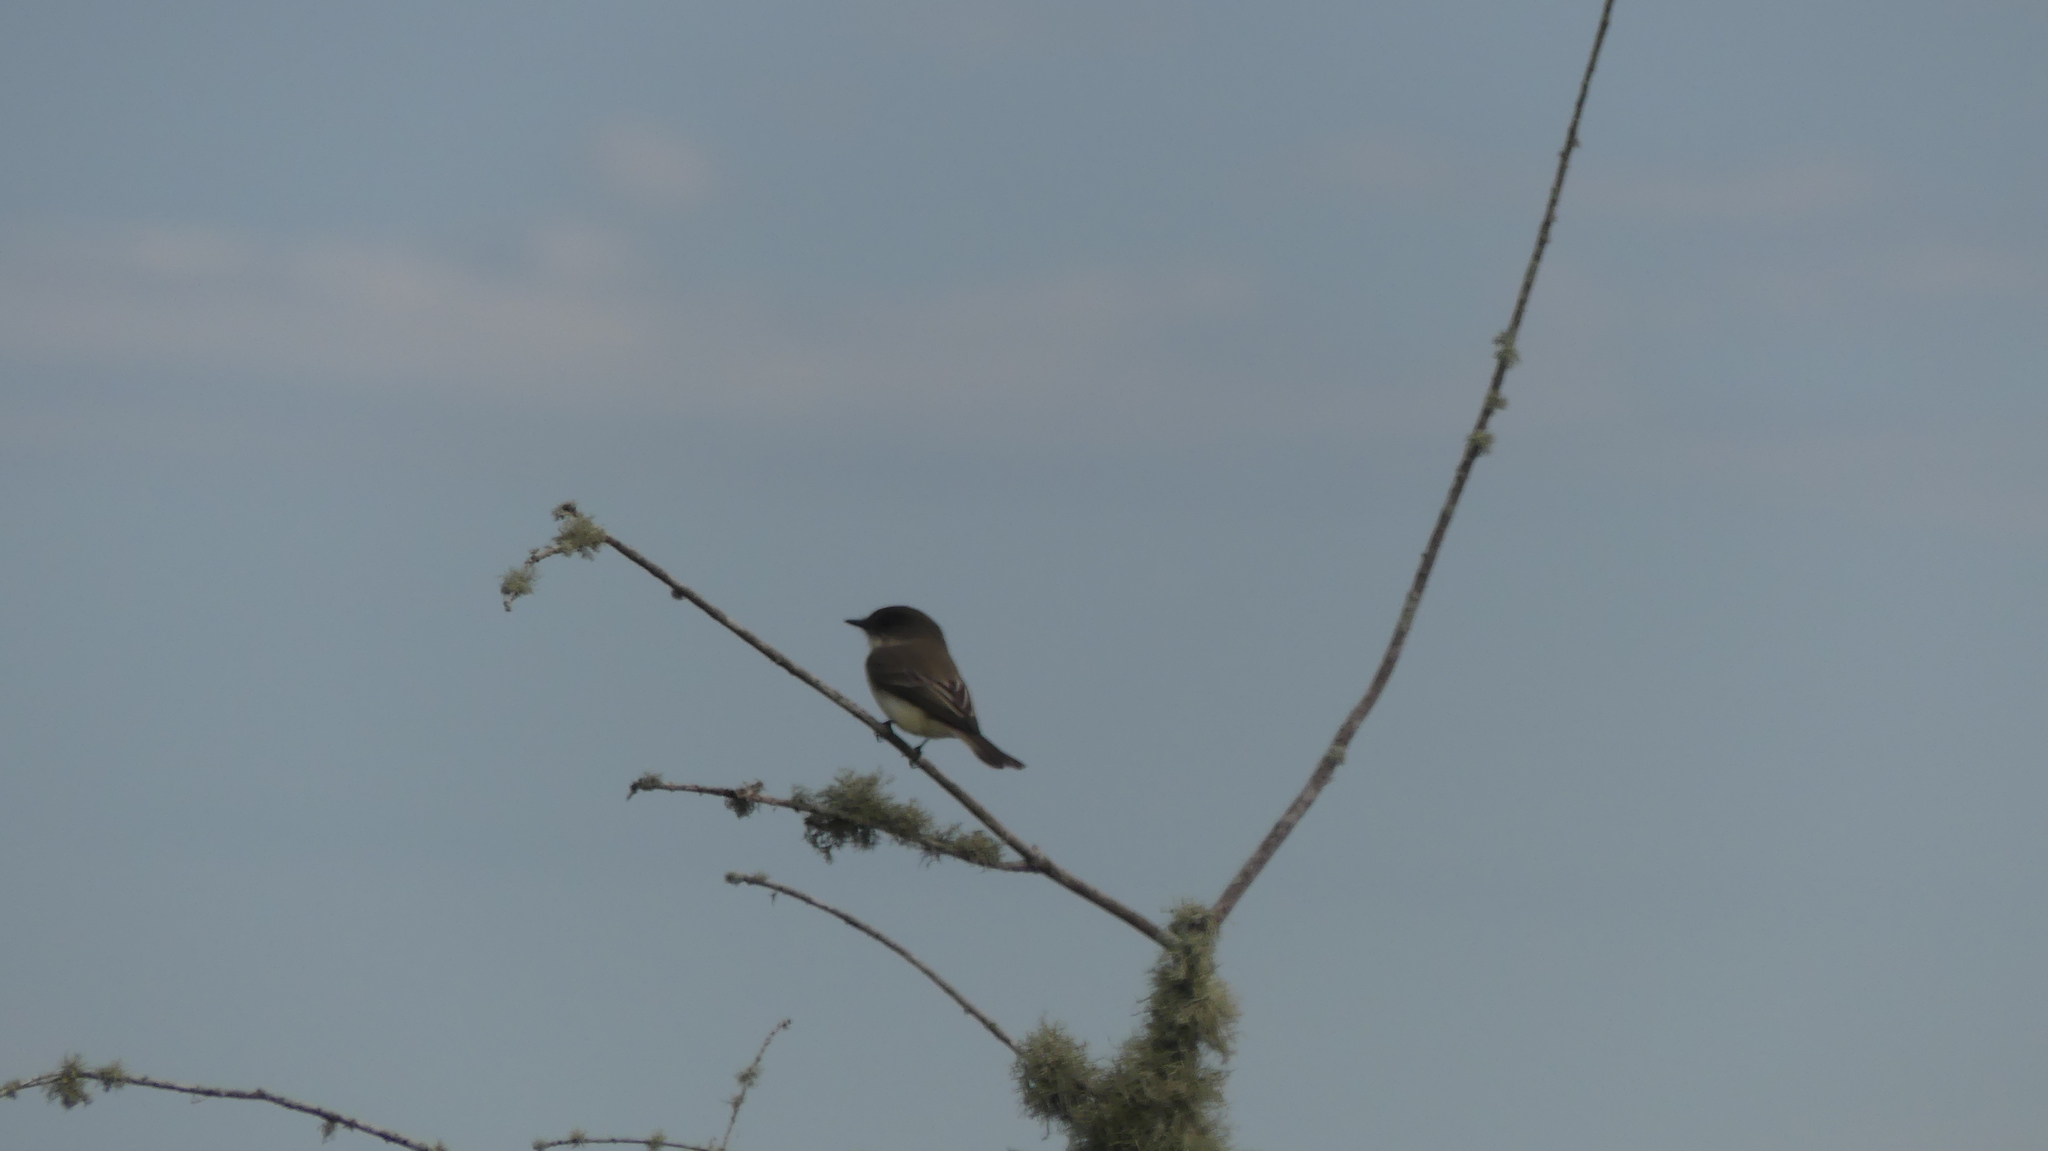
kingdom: Animalia
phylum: Chordata
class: Aves
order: Passeriformes
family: Tyrannidae
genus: Sayornis
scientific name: Sayornis phoebe
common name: Eastern phoebe
